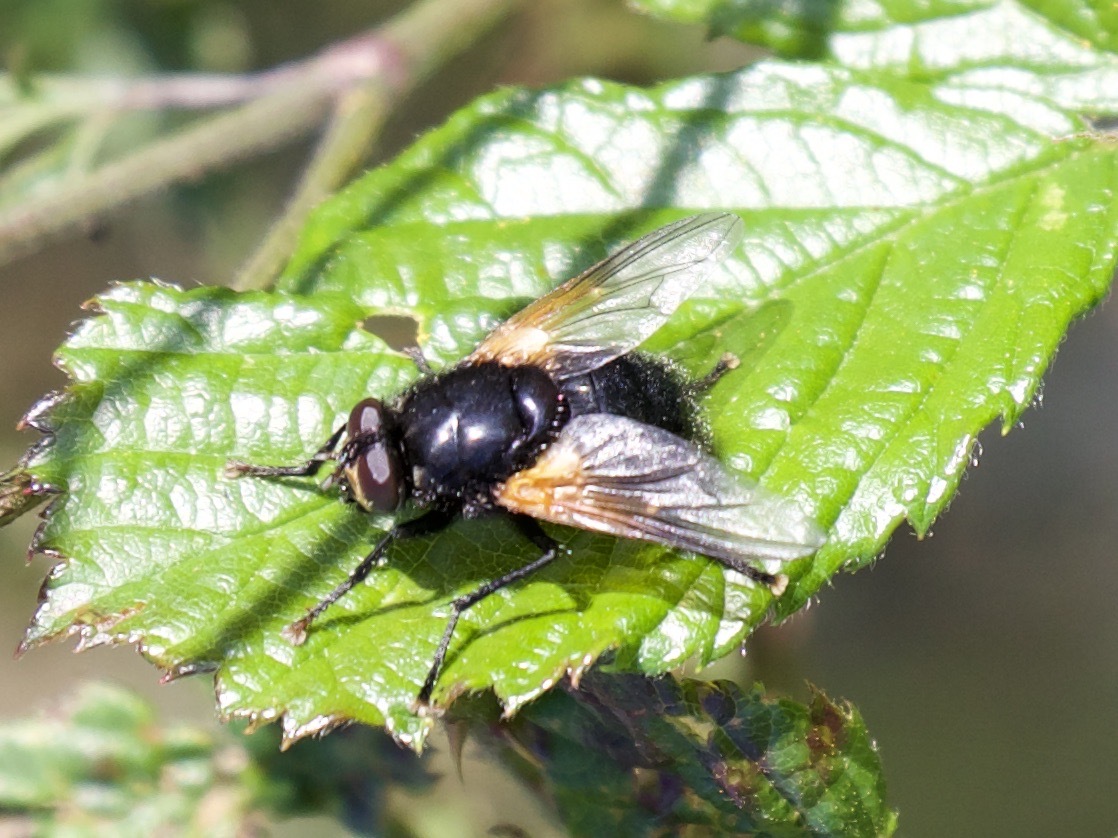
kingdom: Animalia
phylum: Arthropoda
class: Insecta
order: Diptera
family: Muscidae
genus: Mesembrina
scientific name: Mesembrina meridiana
